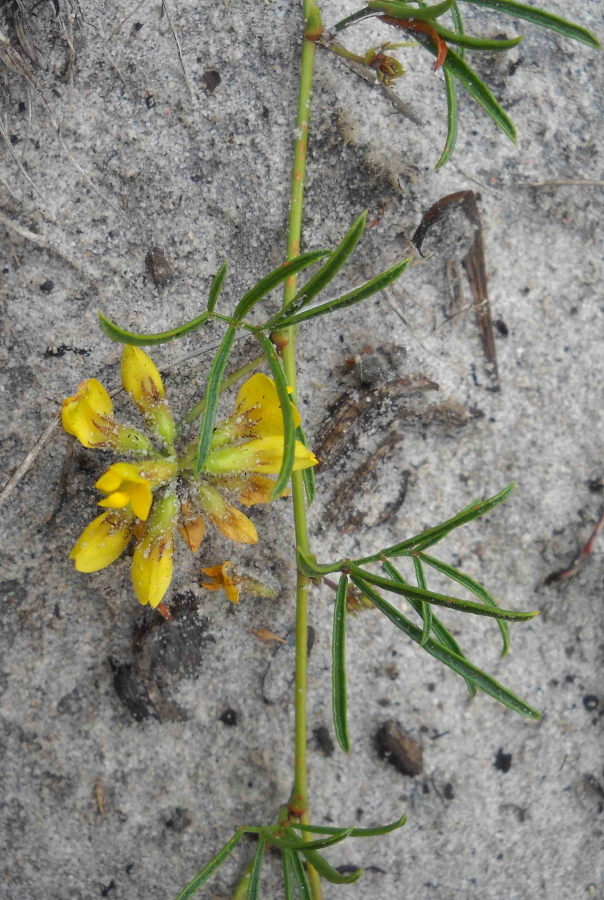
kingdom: Plantae
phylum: Tracheophyta
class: Magnoliopsida
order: Fabales
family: Fabaceae
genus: Rhynchosia
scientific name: Rhynchosia ferulifolia
